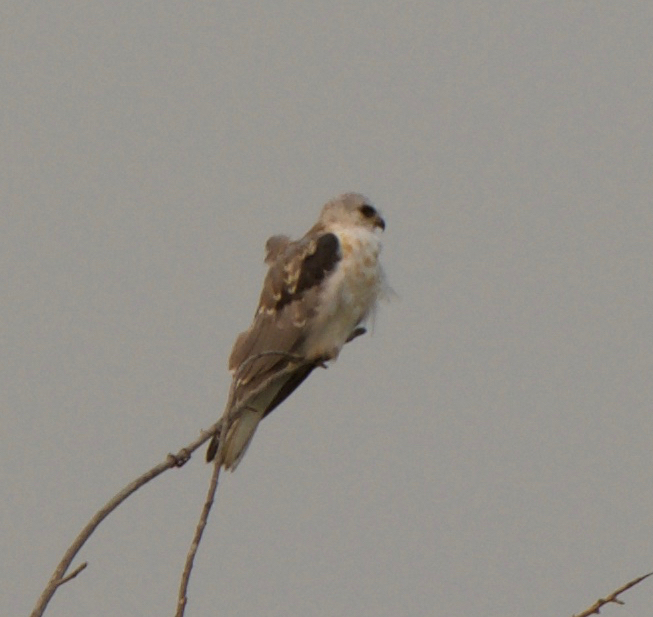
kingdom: Animalia
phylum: Chordata
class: Aves
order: Accipitriformes
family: Accipitridae
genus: Elanus
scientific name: Elanus leucurus
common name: White-tailed kite
